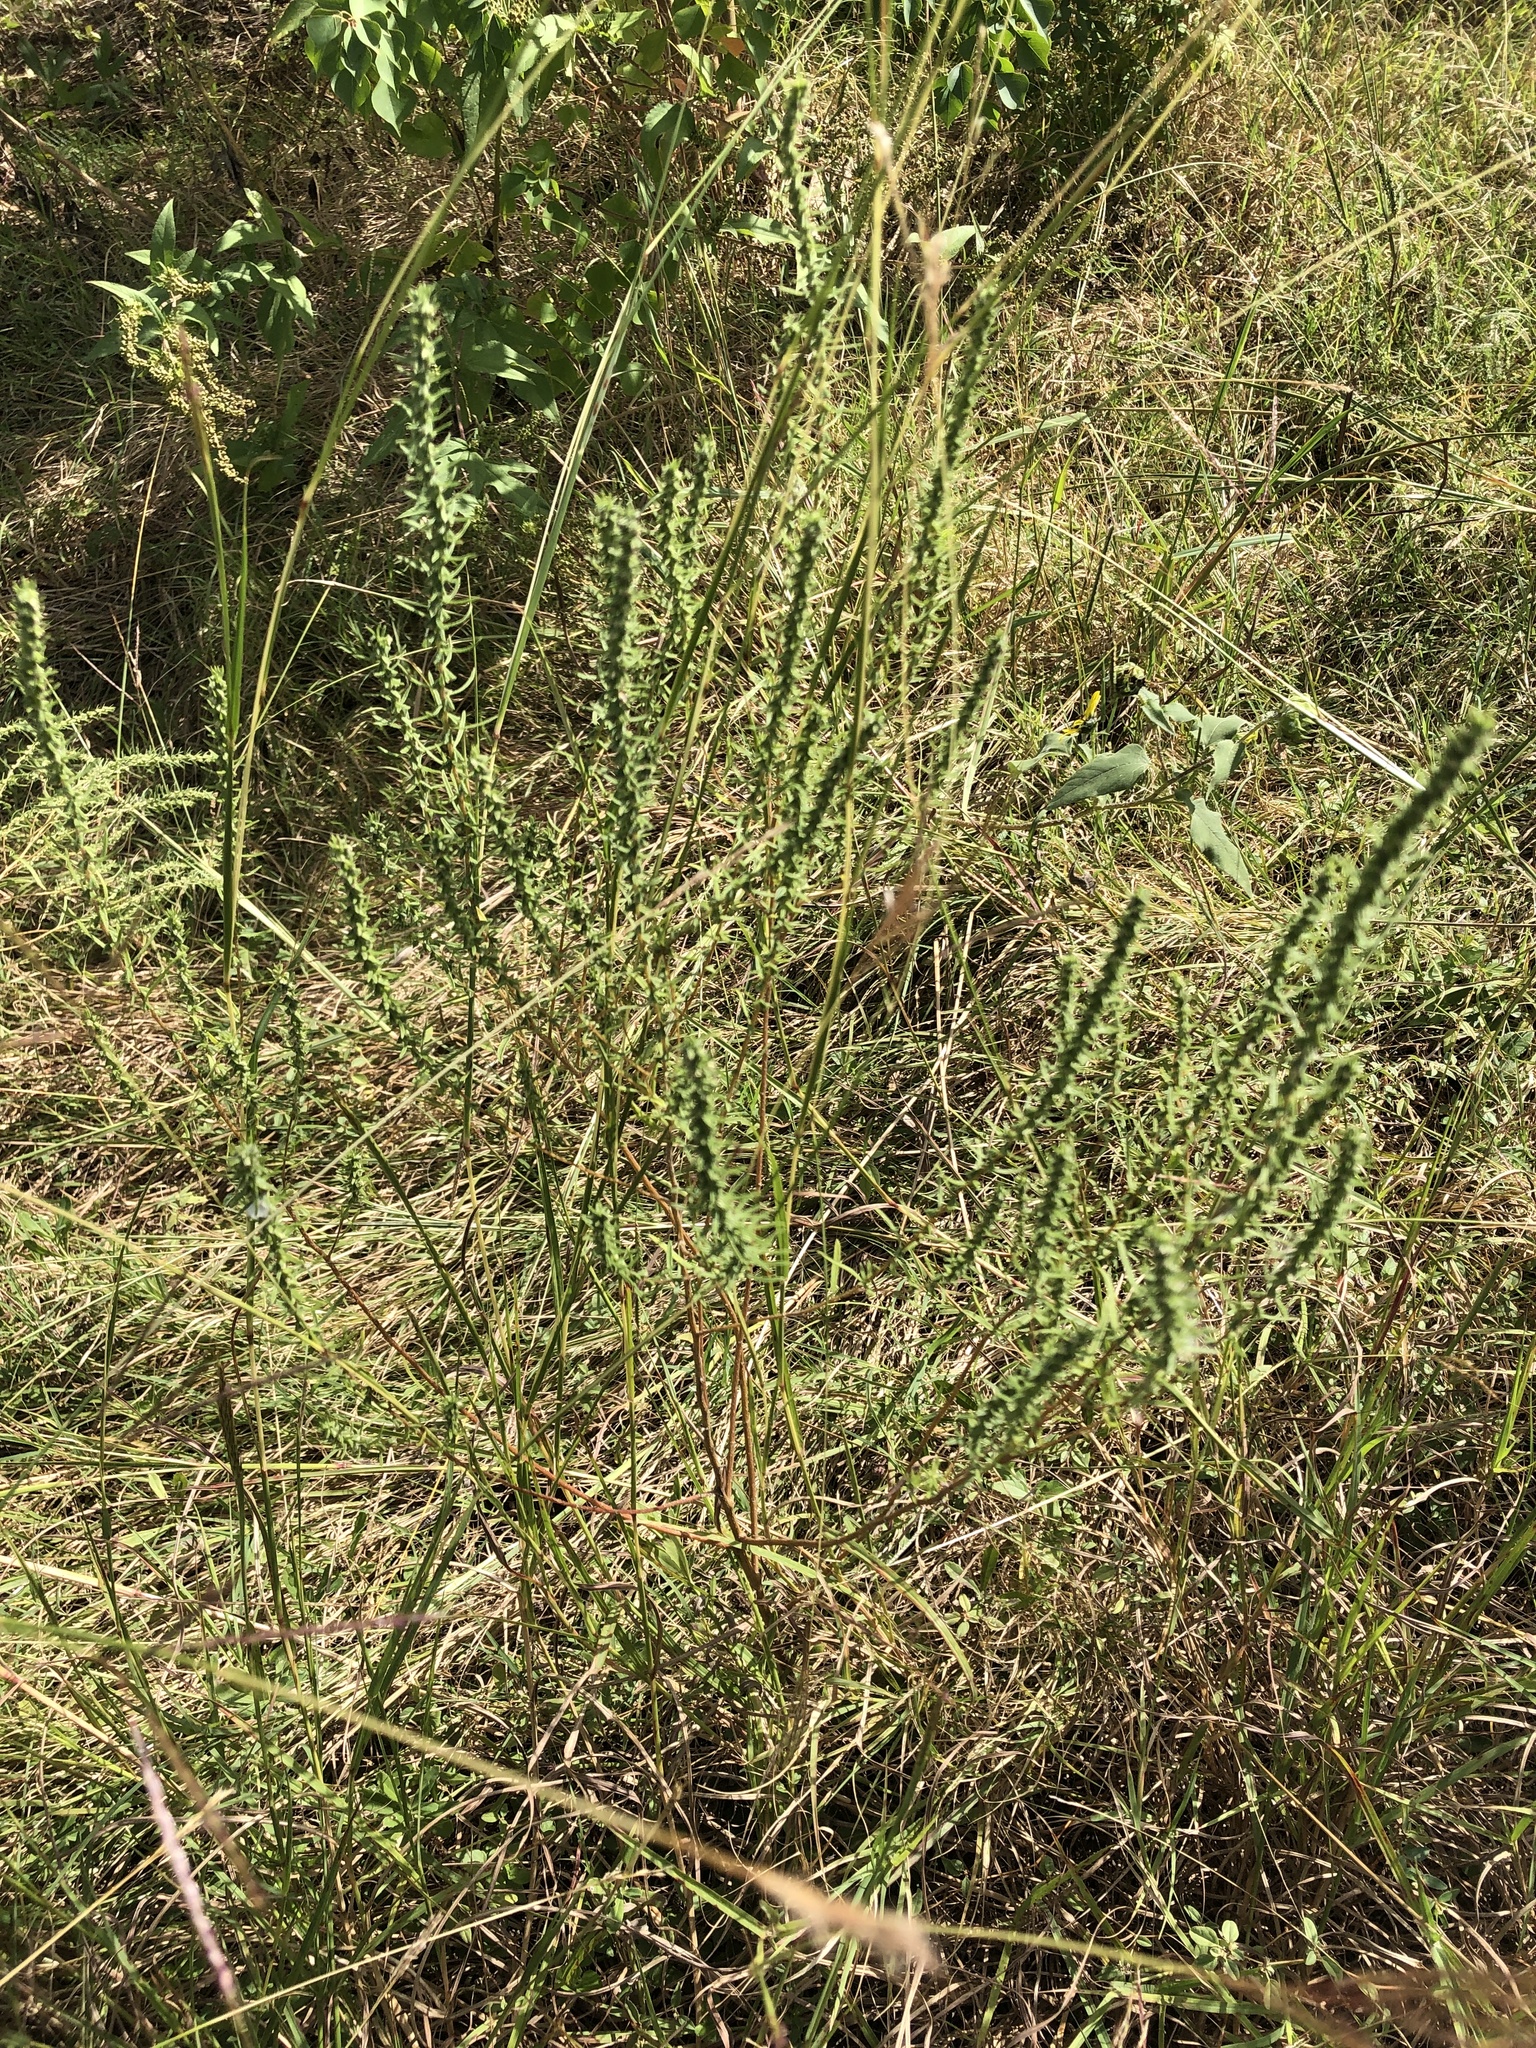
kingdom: Plantae
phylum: Tracheophyta
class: Magnoliopsida
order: Asterales
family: Asteraceae
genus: Iva
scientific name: Iva asperifolia
